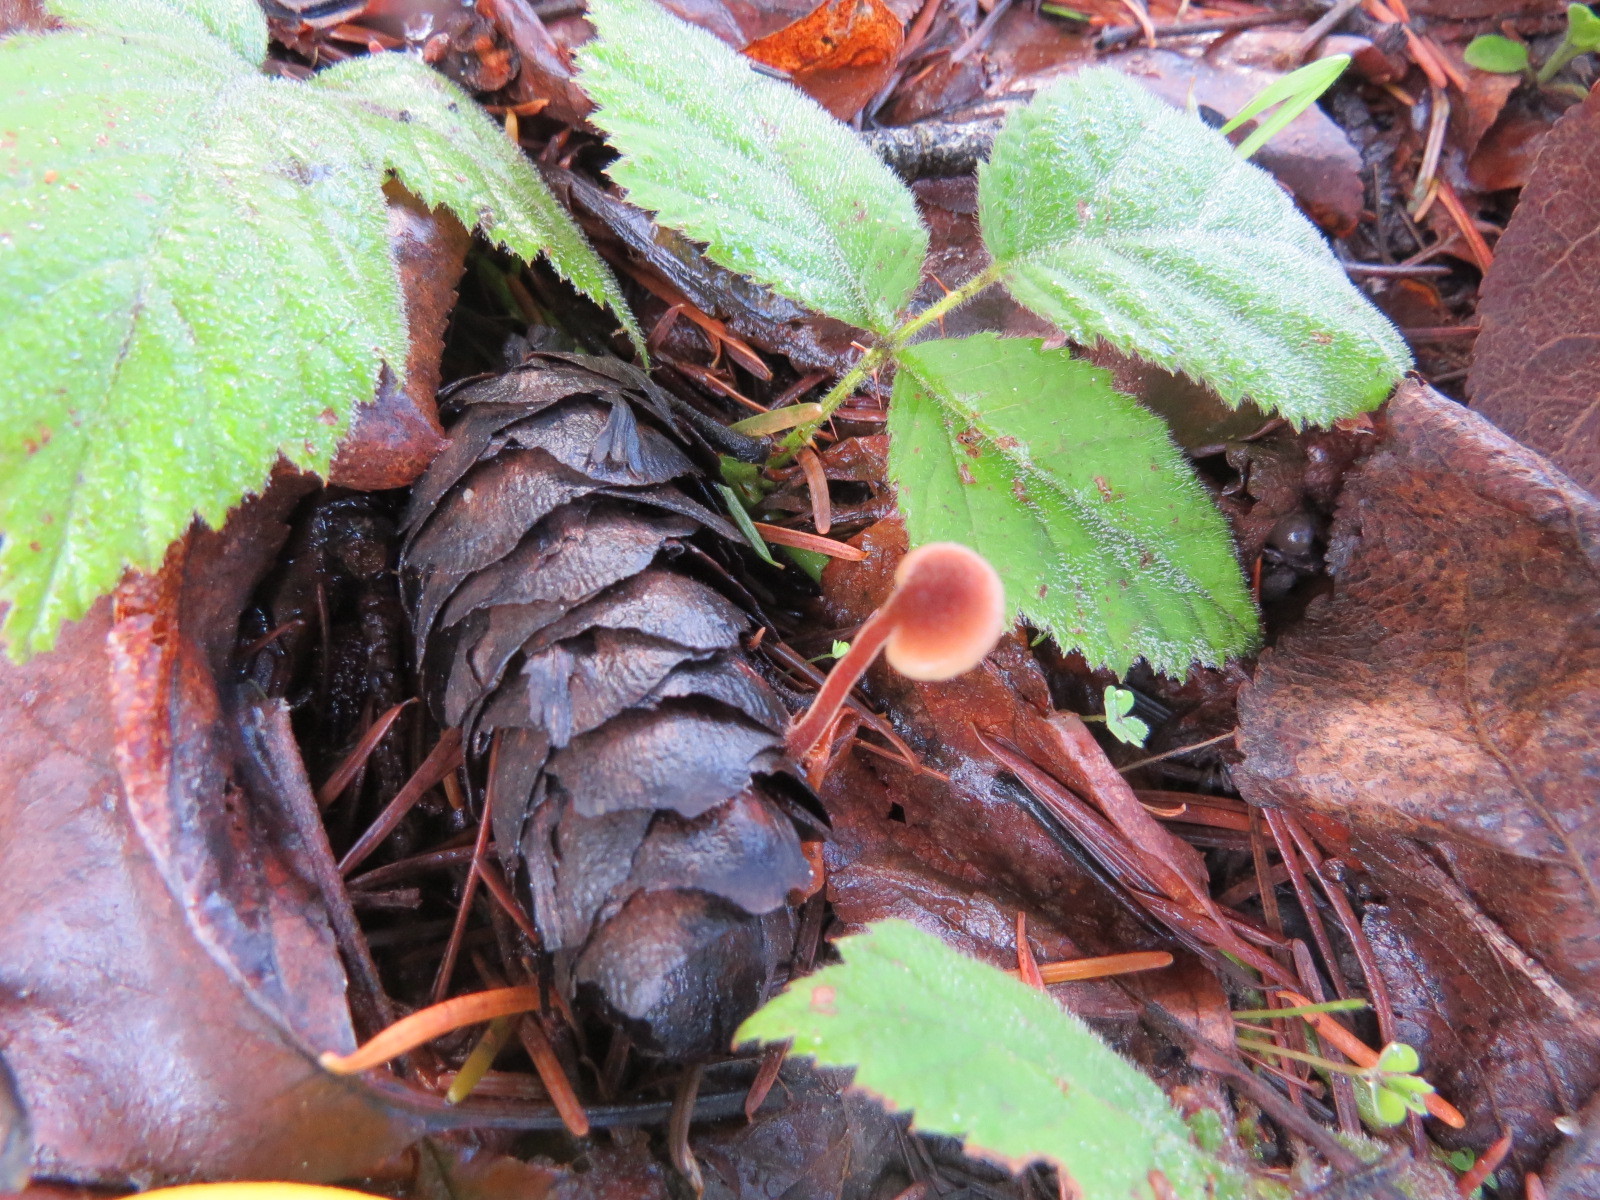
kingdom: Fungi
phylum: Basidiomycota
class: Agaricomycetes
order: Russulales
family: Auriscalpiaceae
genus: Auriscalpium
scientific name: Auriscalpium vulgare
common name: Earpick fungus
